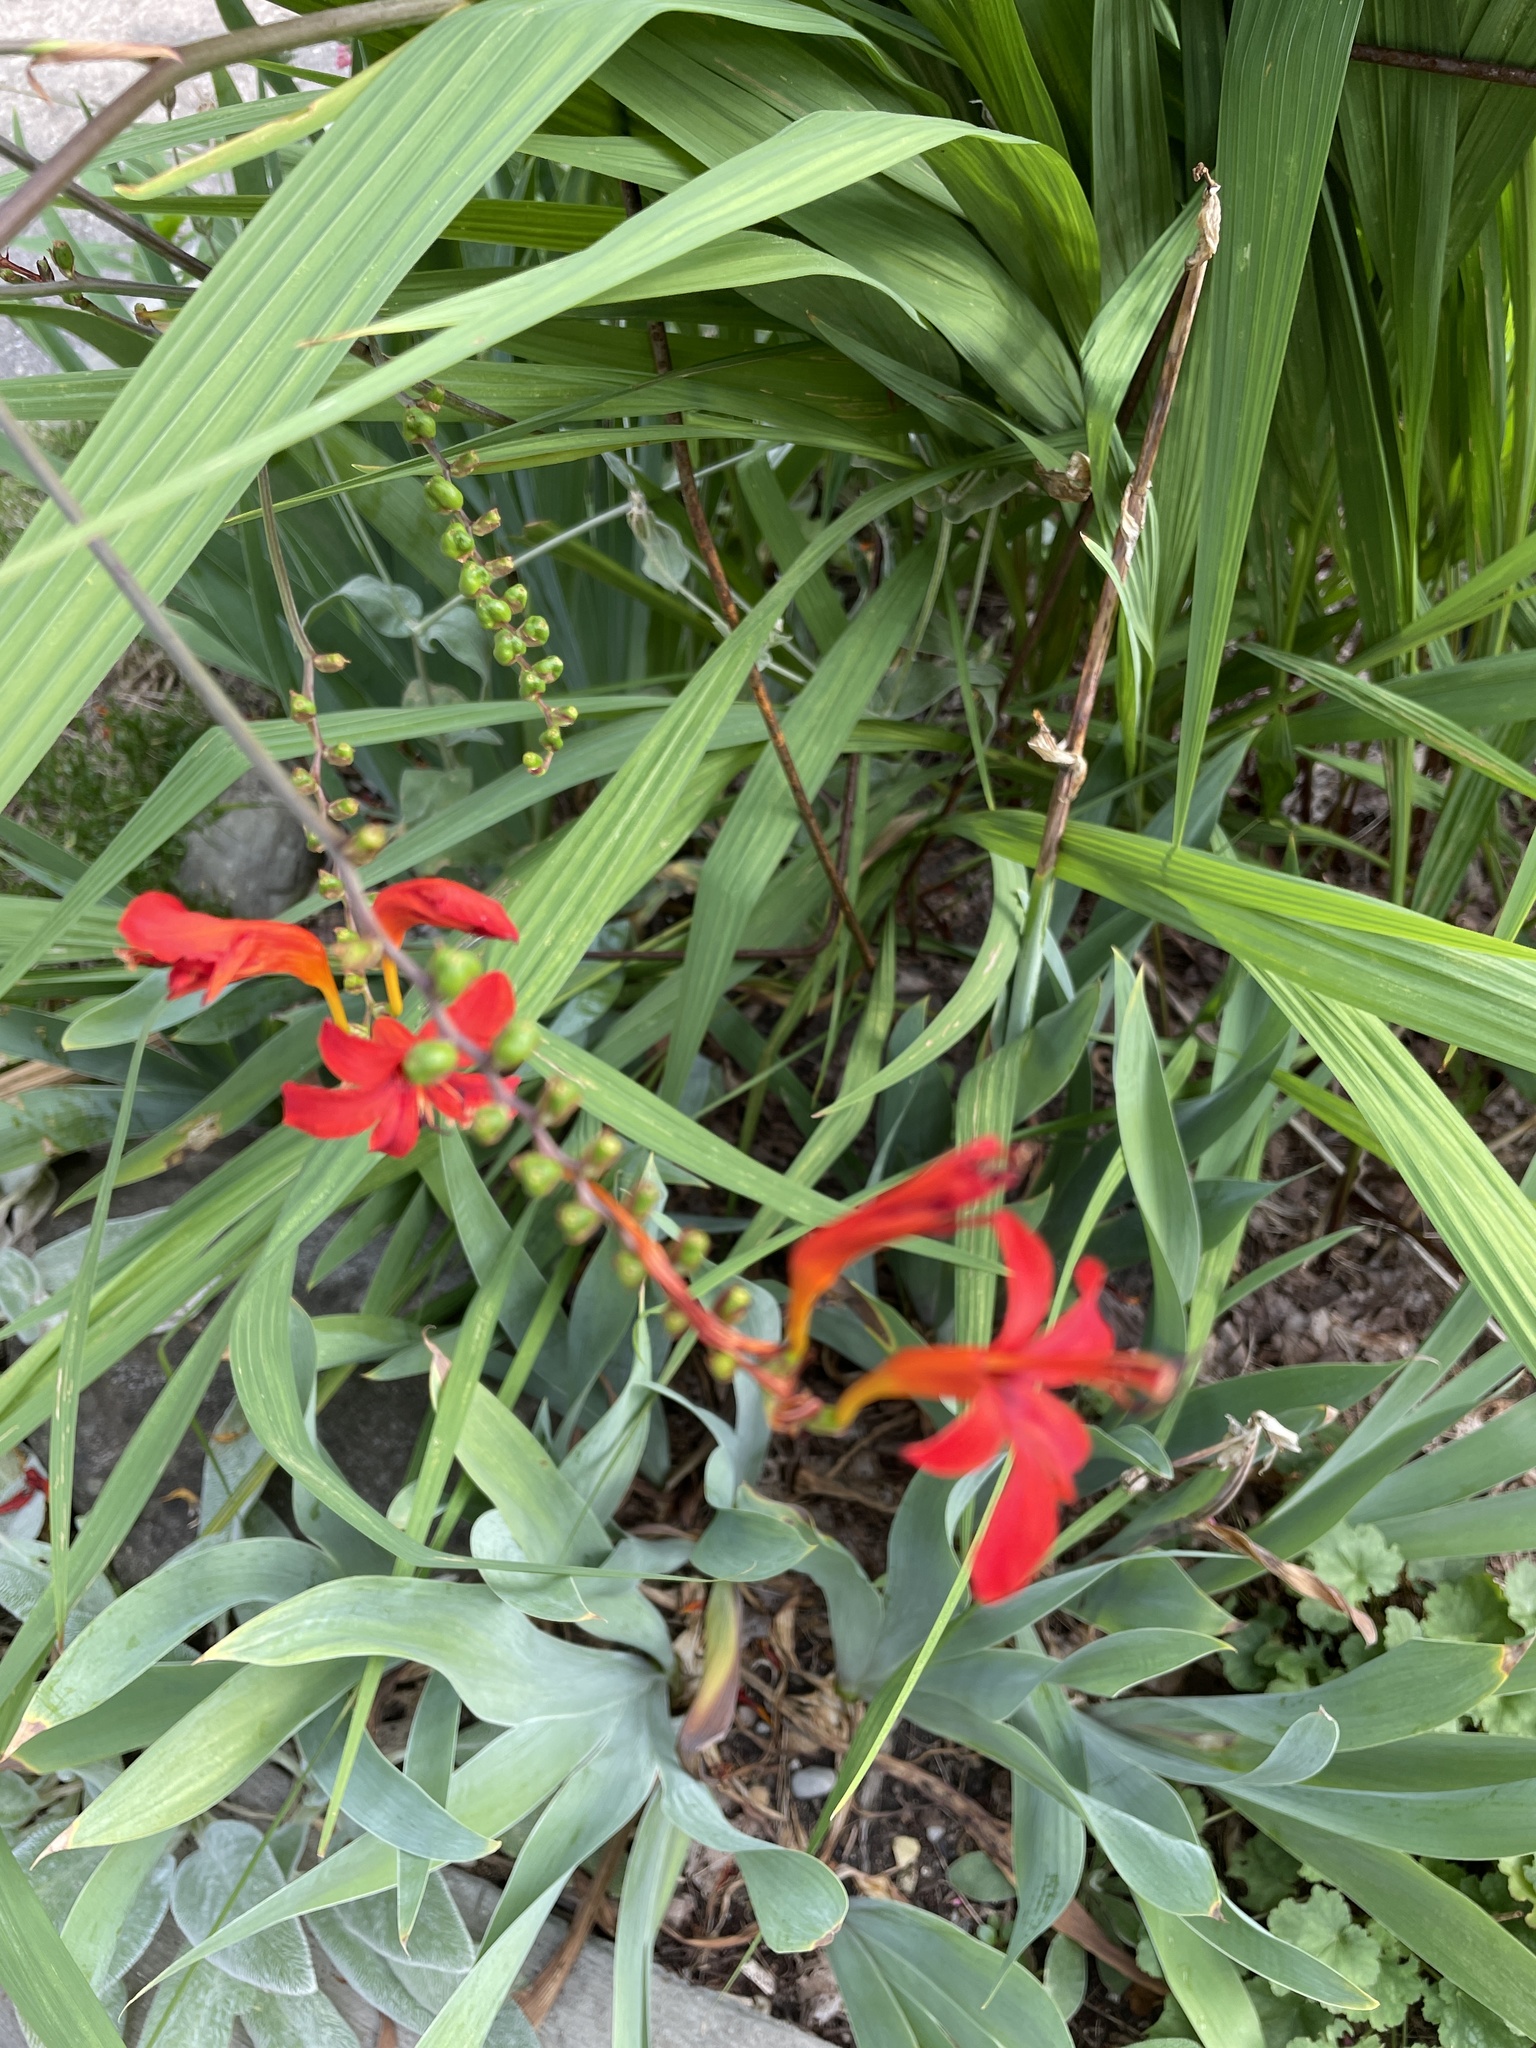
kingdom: Plantae
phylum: Tracheophyta
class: Liliopsida
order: Asparagales
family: Iridaceae
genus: Crocosmia
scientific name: Crocosmia
